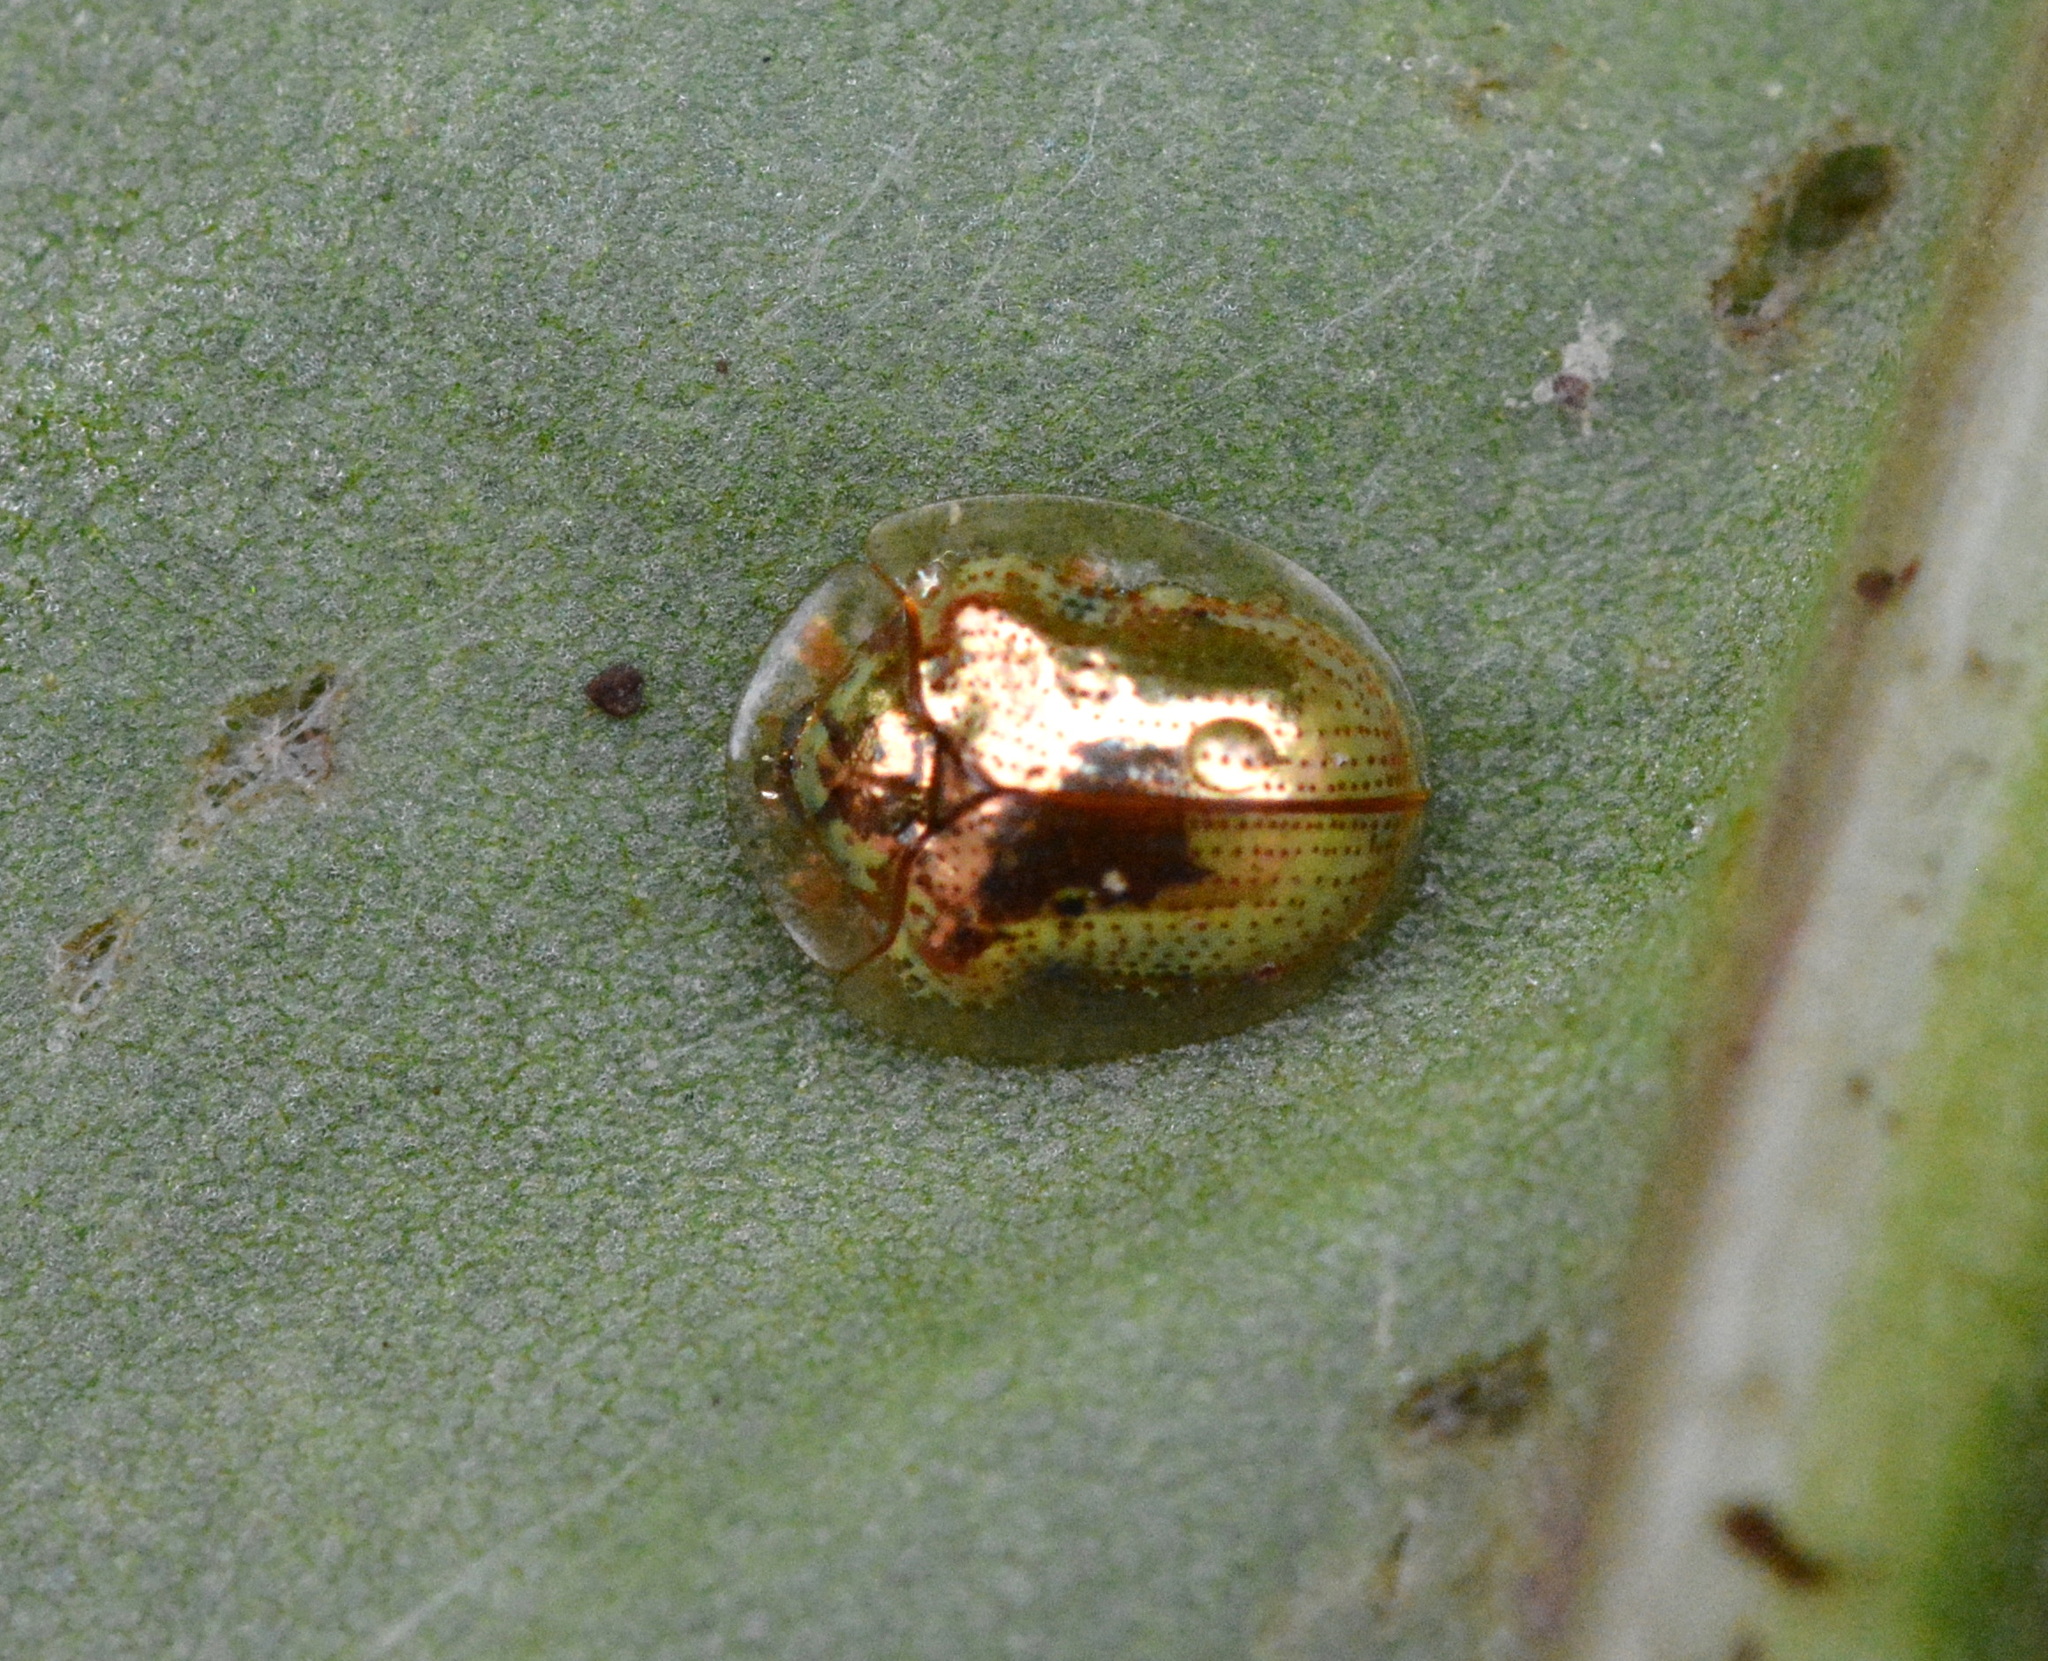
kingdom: Animalia
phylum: Arthropoda
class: Insecta
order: Coleoptera
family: Chrysomelidae
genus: Charidotella
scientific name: Charidotella sexpunctata
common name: Golden tortoise beetle
